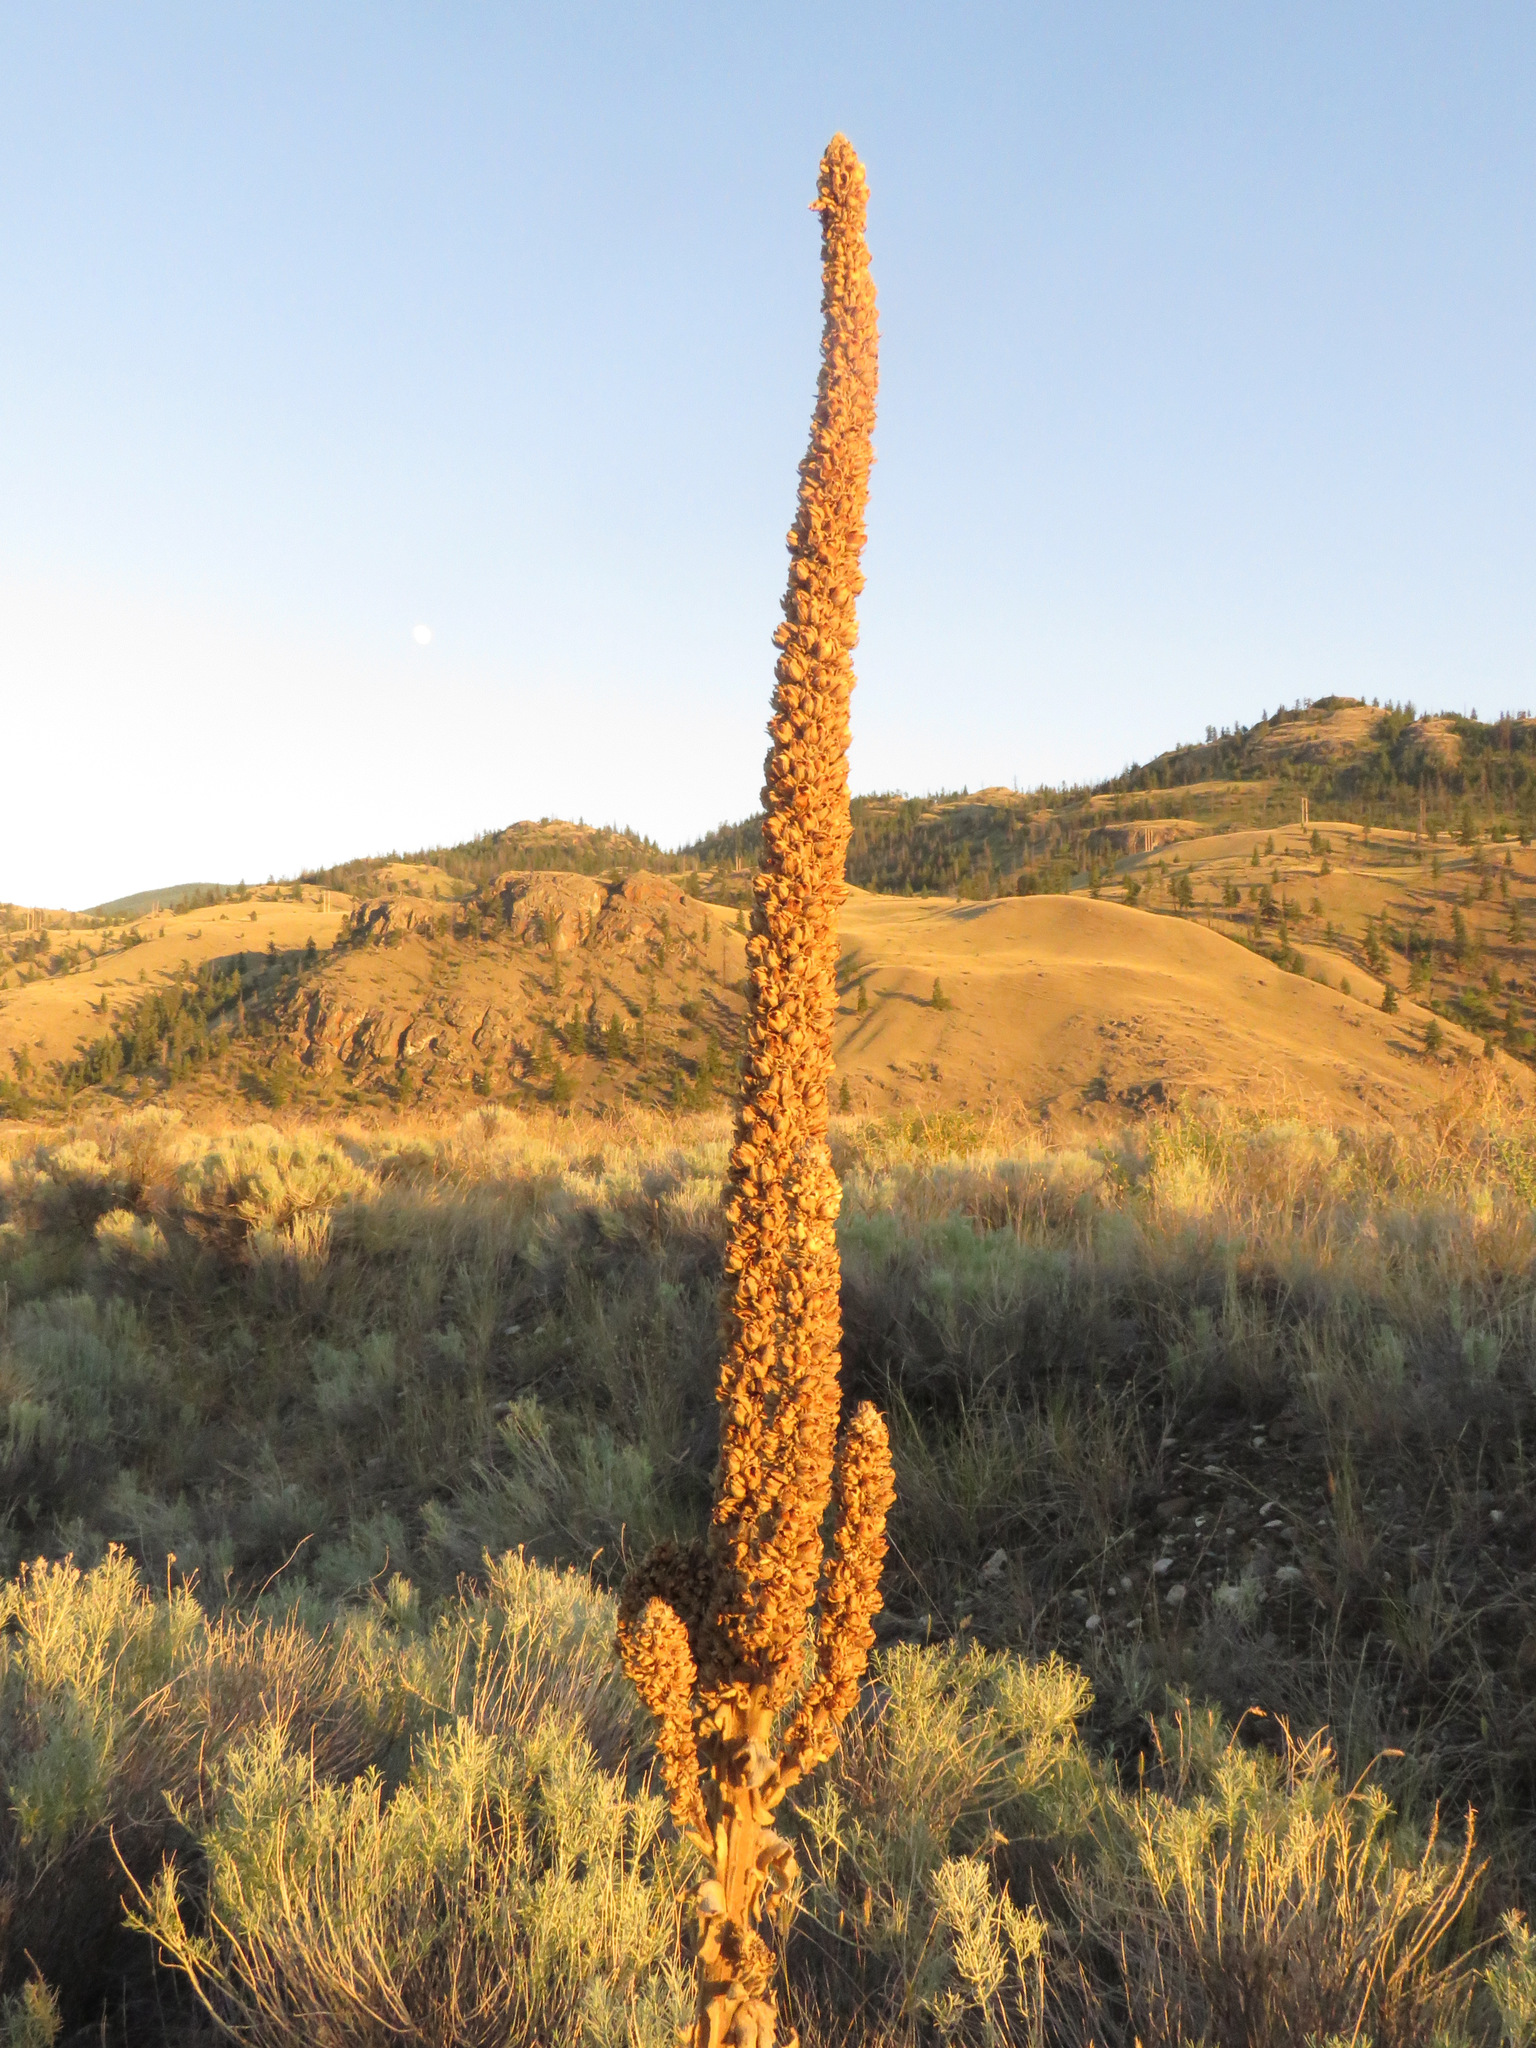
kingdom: Plantae
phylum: Tracheophyta
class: Magnoliopsida
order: Lamiales
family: Scrophulariaceae
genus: Verbascum
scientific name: Verbascum thapsus
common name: Common mullein
